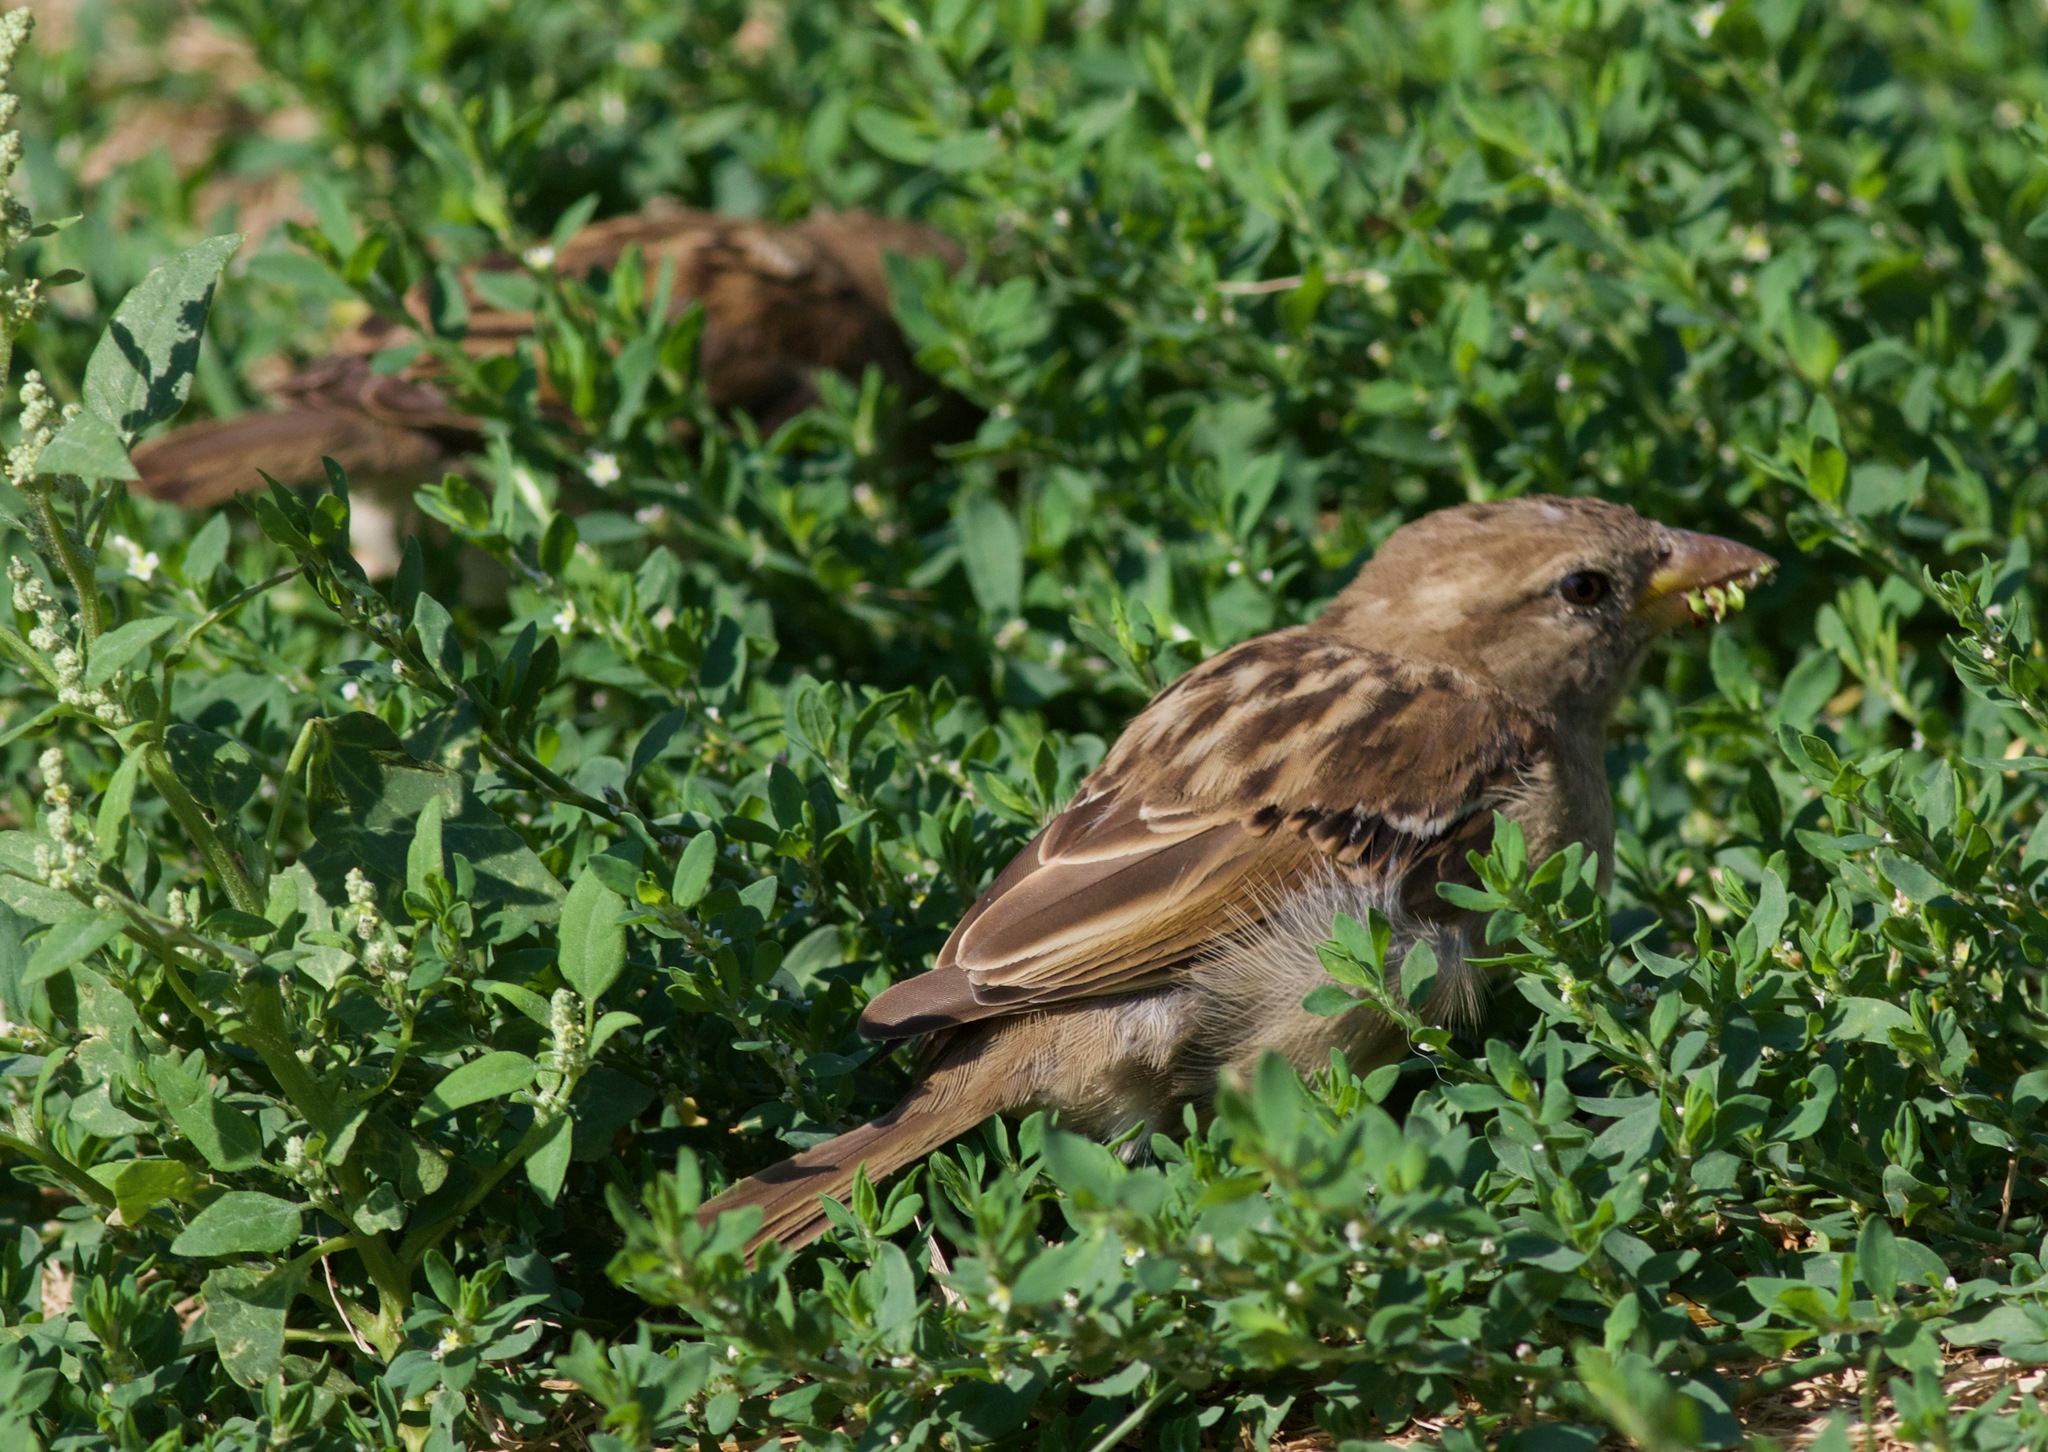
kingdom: Animalia
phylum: Chordata
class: Aves
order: Passeriformes
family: Passeridae
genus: Passer
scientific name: Passer domesticus
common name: House sparrow
